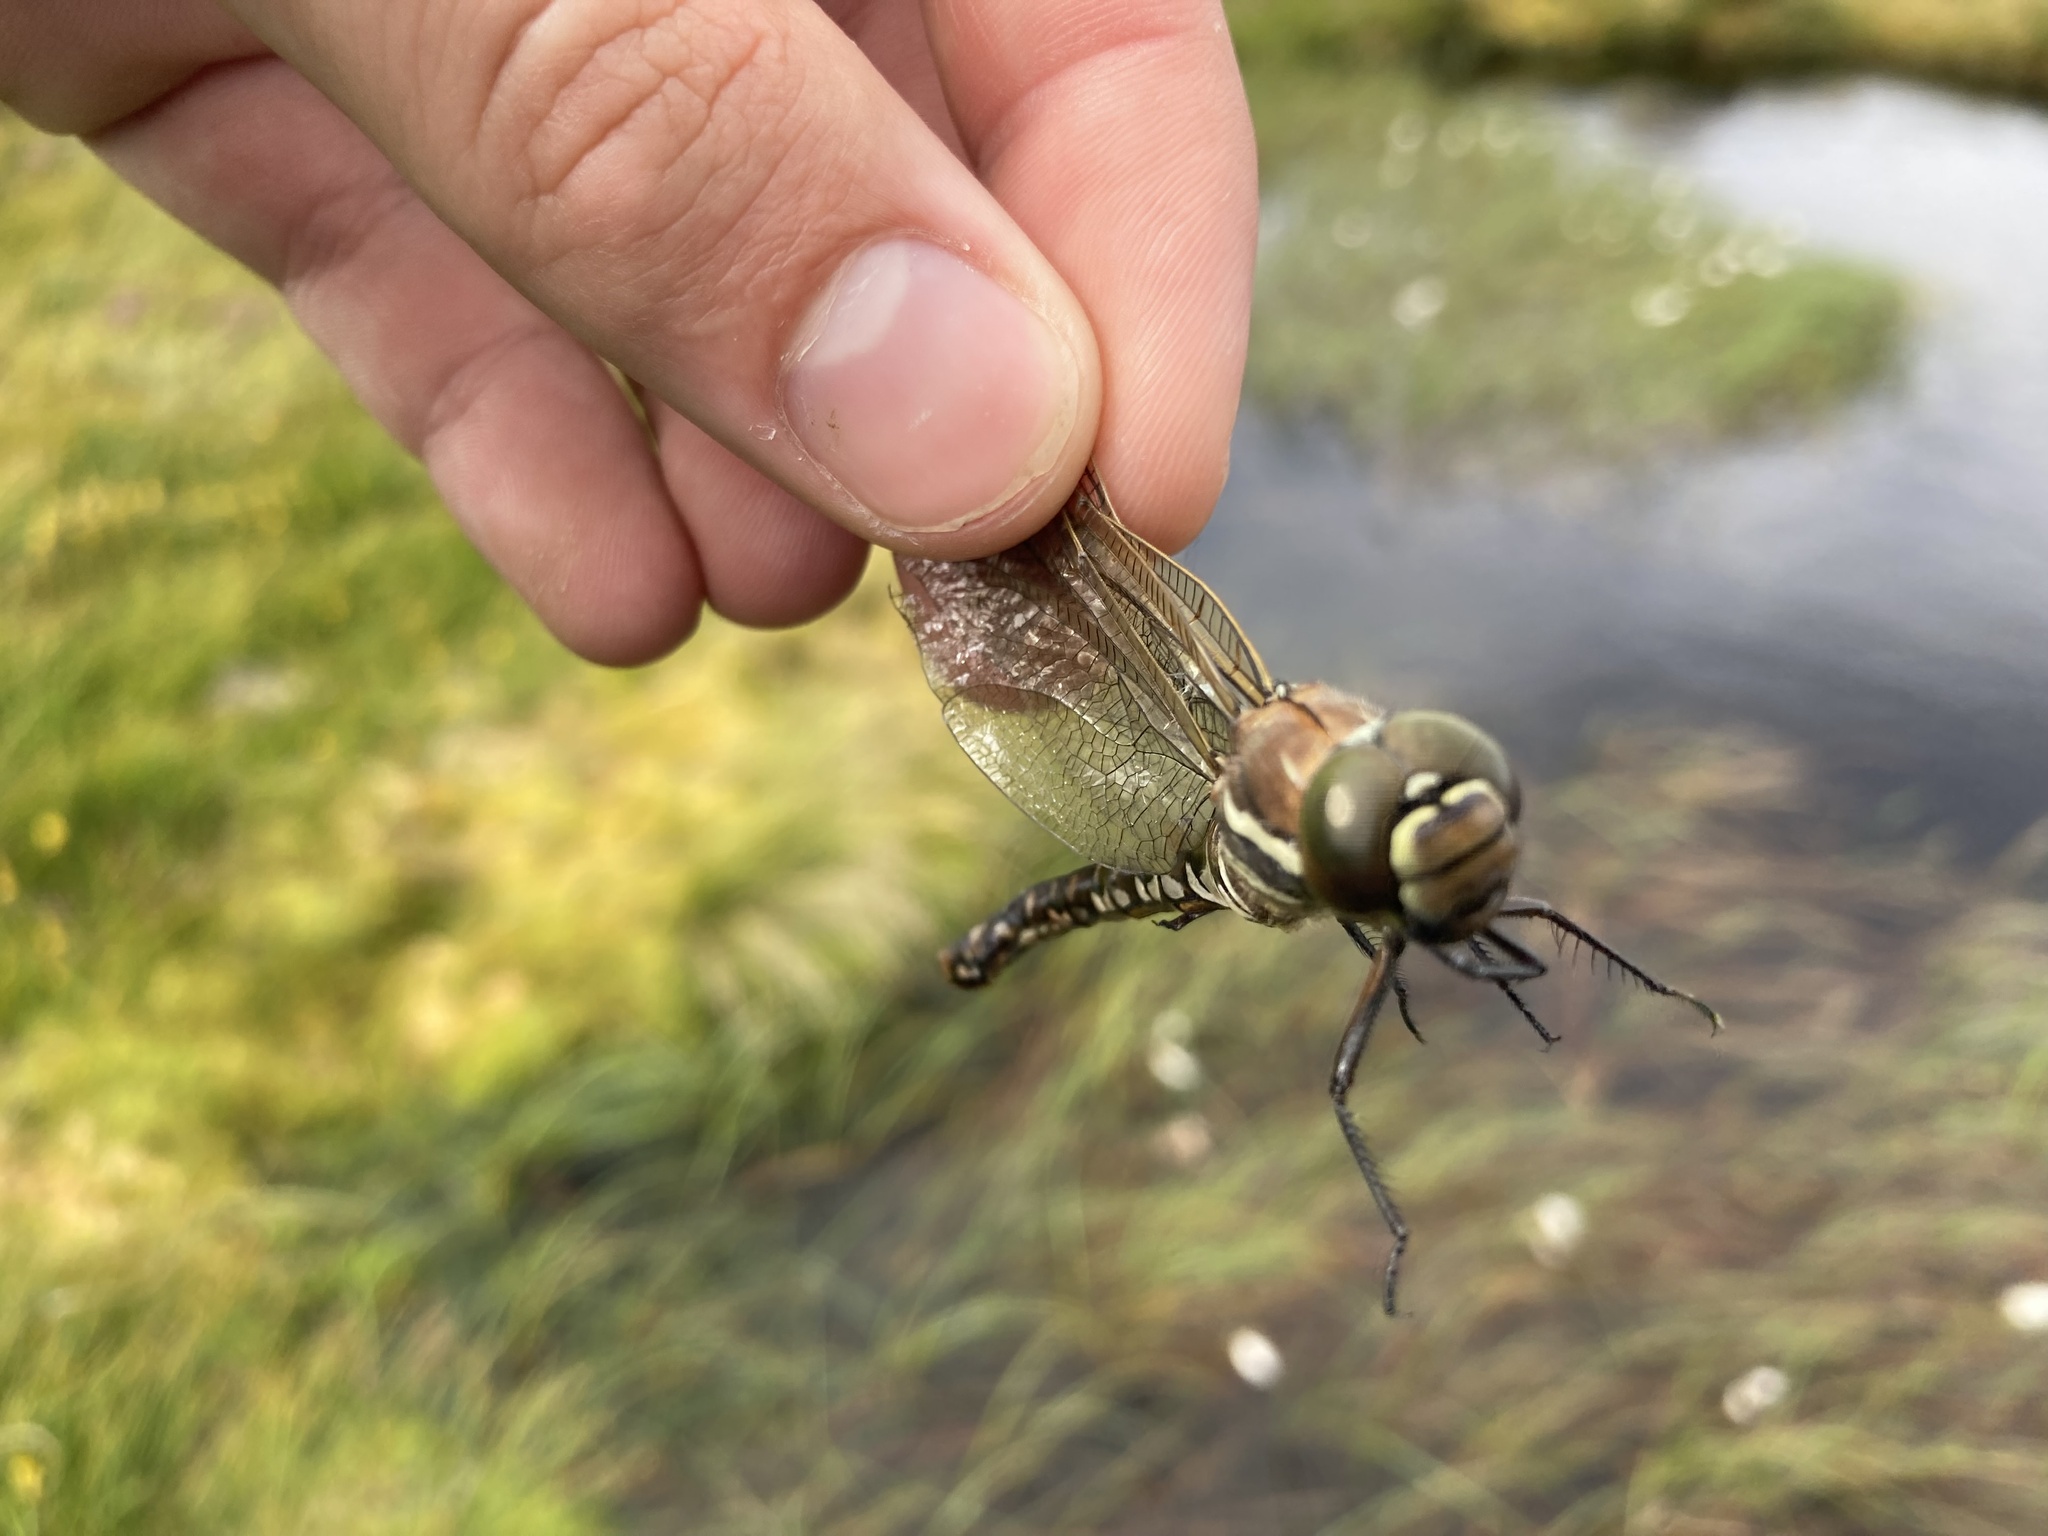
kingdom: Animalia
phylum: Arthropoda
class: Insecta
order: Odonata
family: Aeshnidae
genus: Aeshna
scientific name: Aeshna juncea
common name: Moorland hawker
